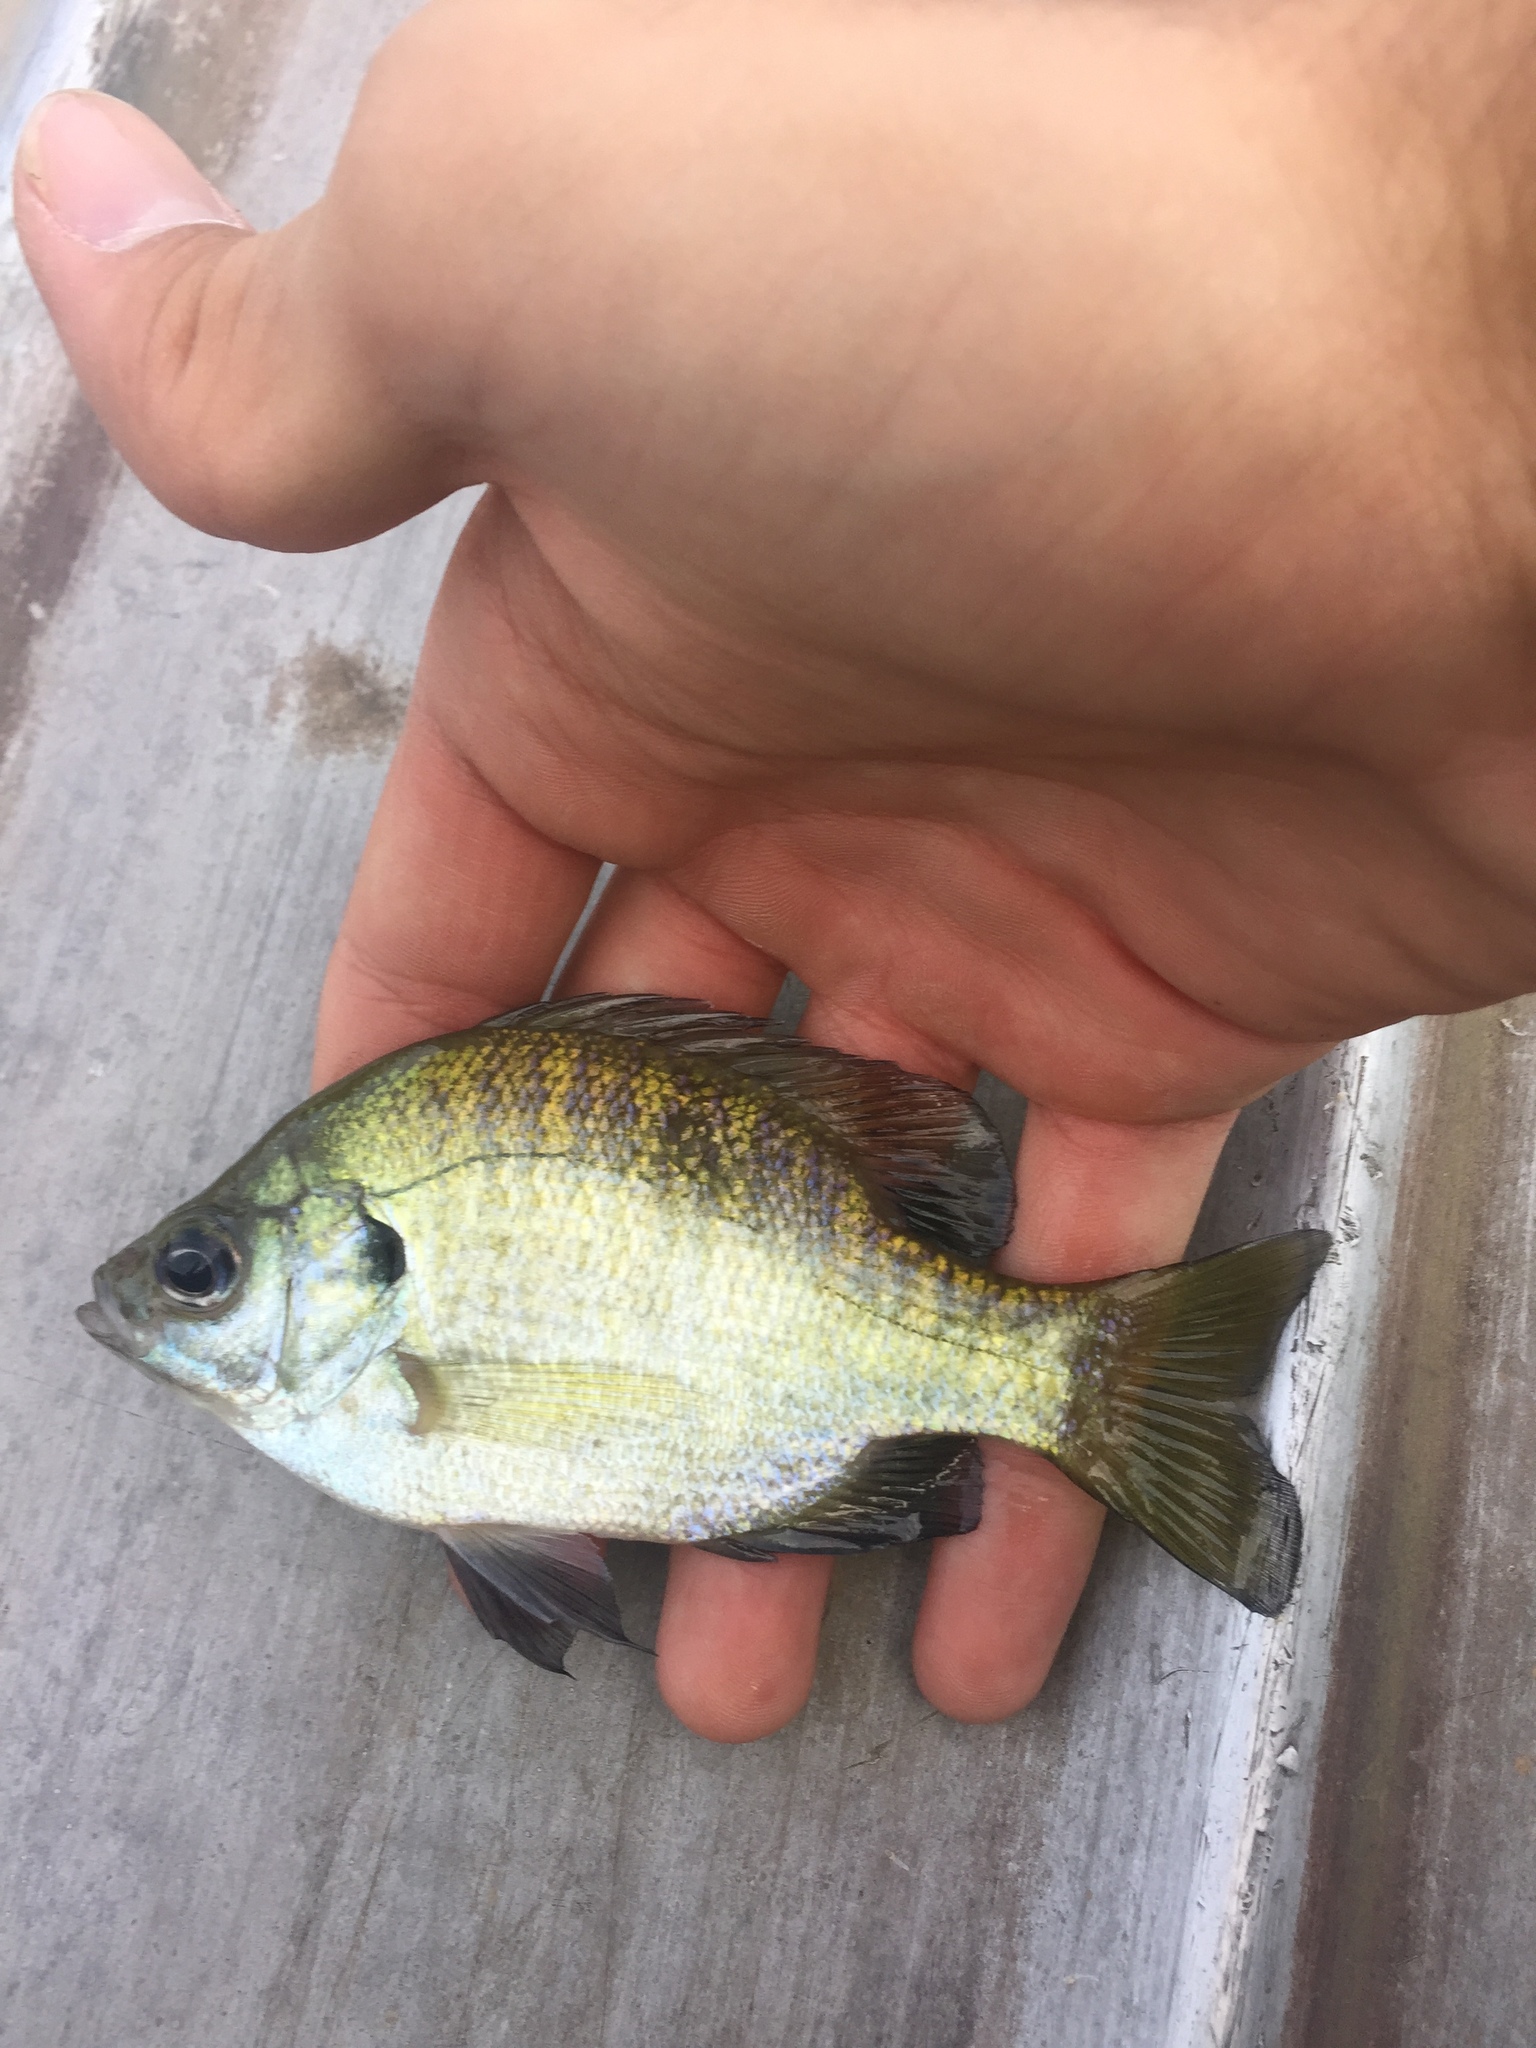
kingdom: Animalia
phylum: Chordata
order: Perciformes
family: Centrarchidae
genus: Lepomis
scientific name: Lepomis macrochirus
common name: Bluegill
